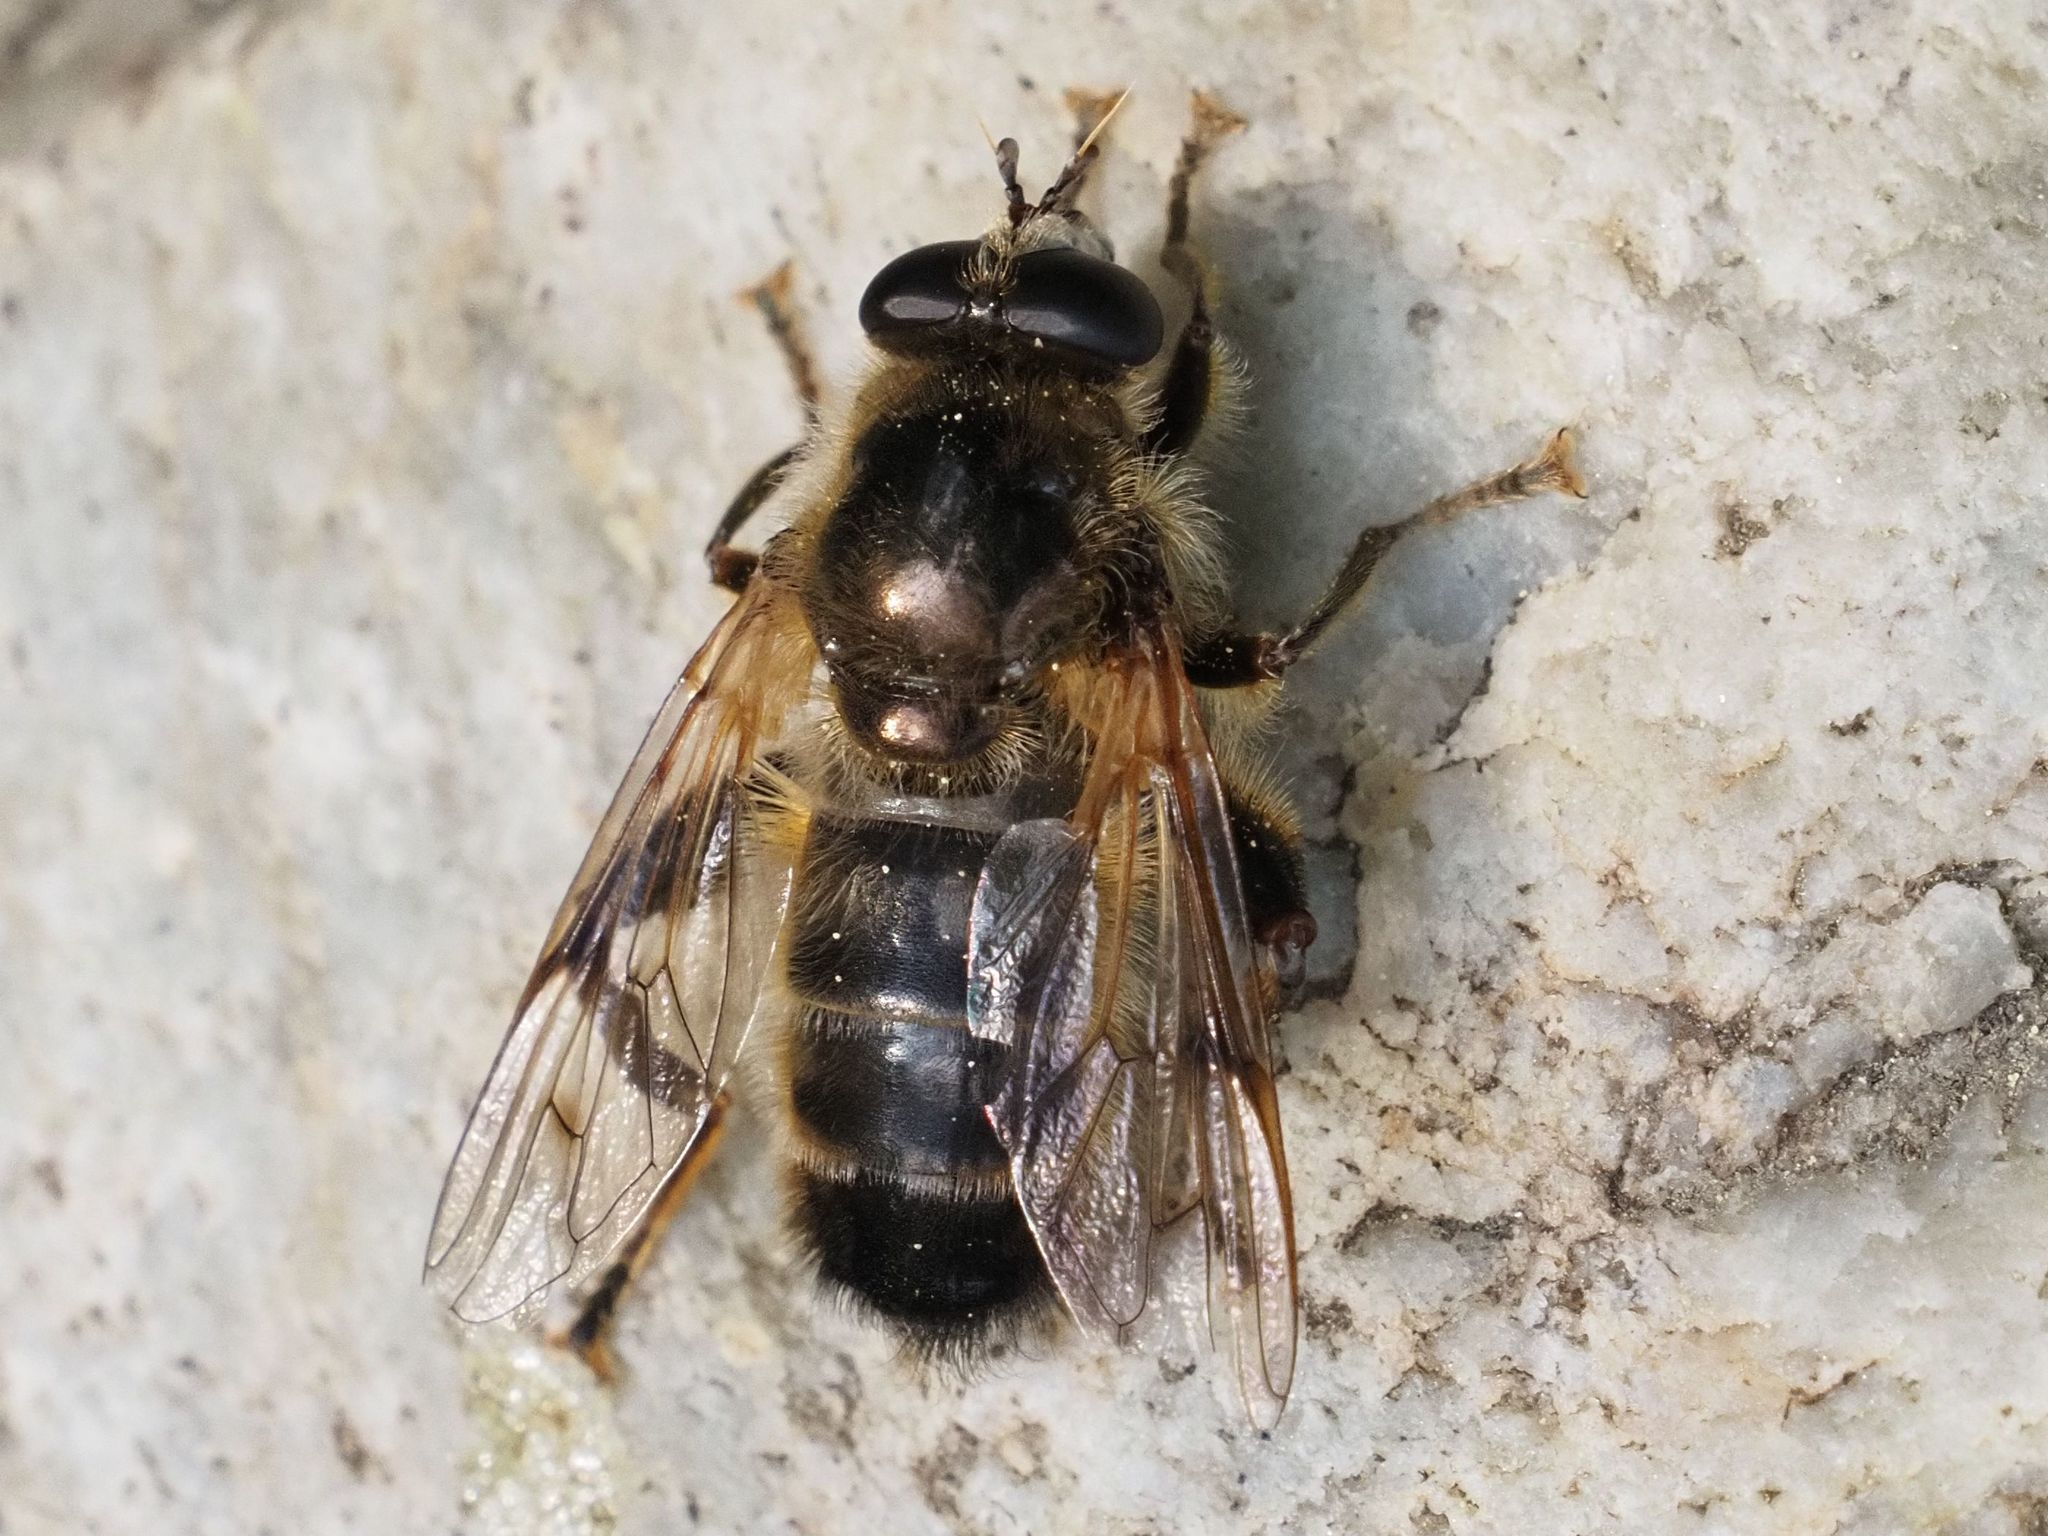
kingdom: Animalia
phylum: Arthropoda
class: Insecta
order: Diptera
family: Syrphidae
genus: Brachypalpus
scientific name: Brachypalpus valgus
